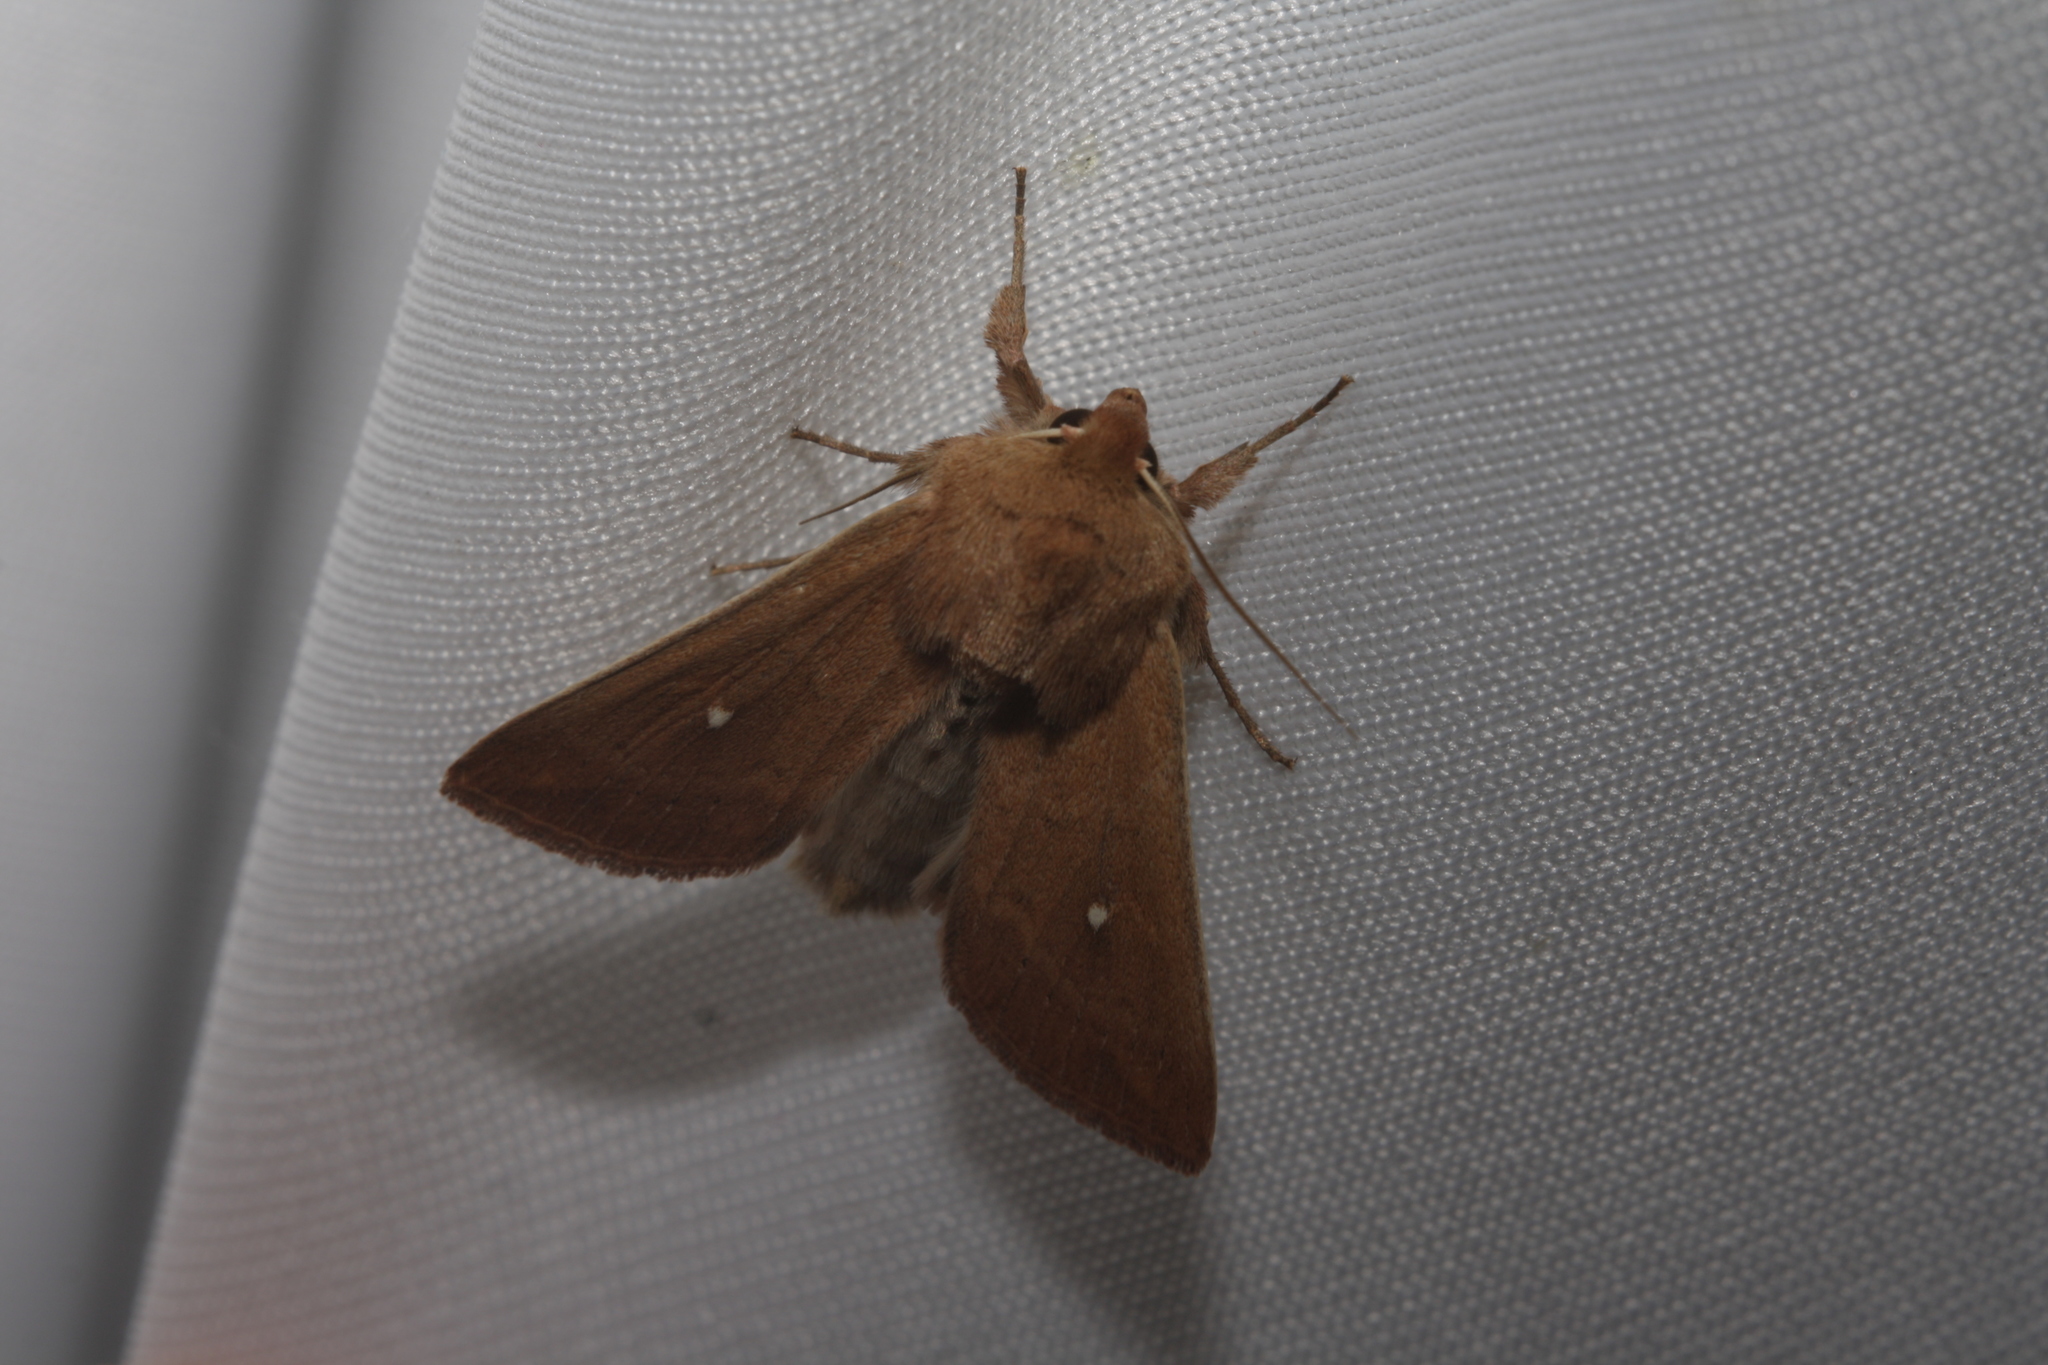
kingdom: Animalia
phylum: Arthropoda
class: Insecta
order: Lepidoptera
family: Noctuidae
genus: Mythimna
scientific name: Mythimna albipuncta
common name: White-point
